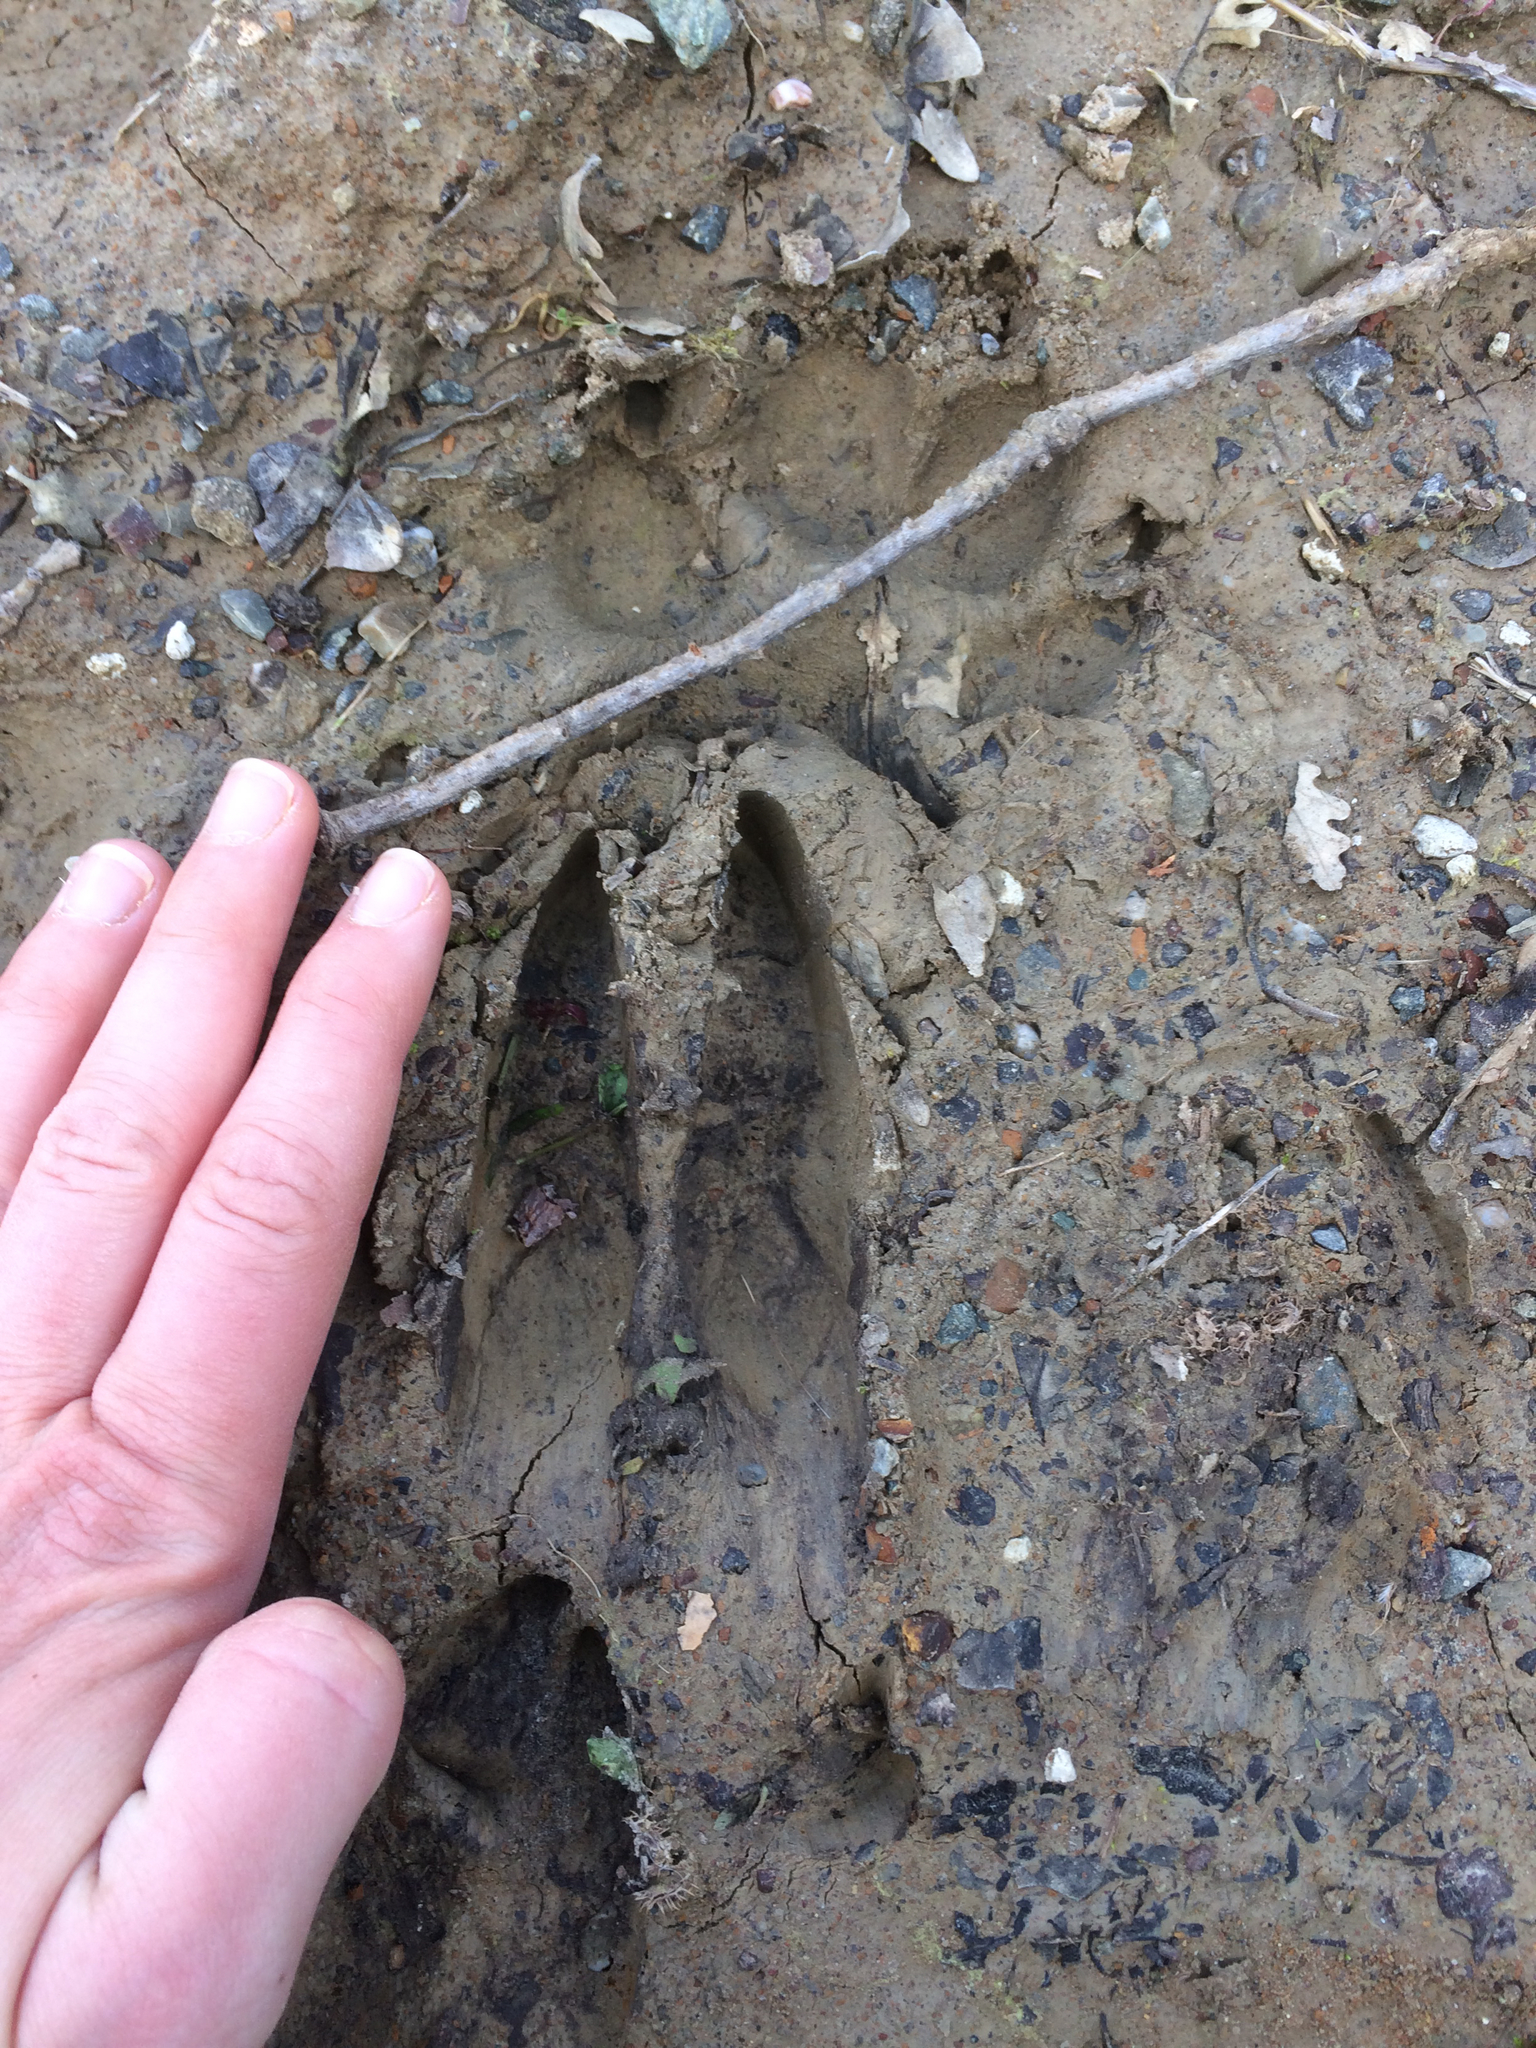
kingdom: Animalia
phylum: Chordata
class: Mammalia
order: Artiodactyla
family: Cervidae
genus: Odocoileus
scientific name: Odocoileus hemionus
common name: Mule deer
